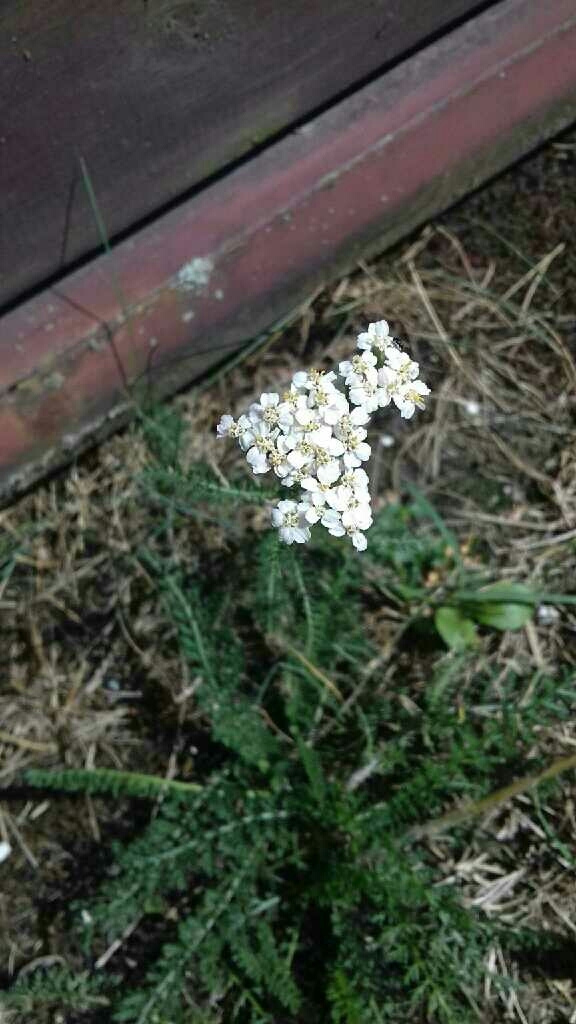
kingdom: Plantae
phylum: Tracheophyta
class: Magnoliopsida
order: Asterales
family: Asteraceae
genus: Achillea
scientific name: Achillea millefolium
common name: Yarrow
